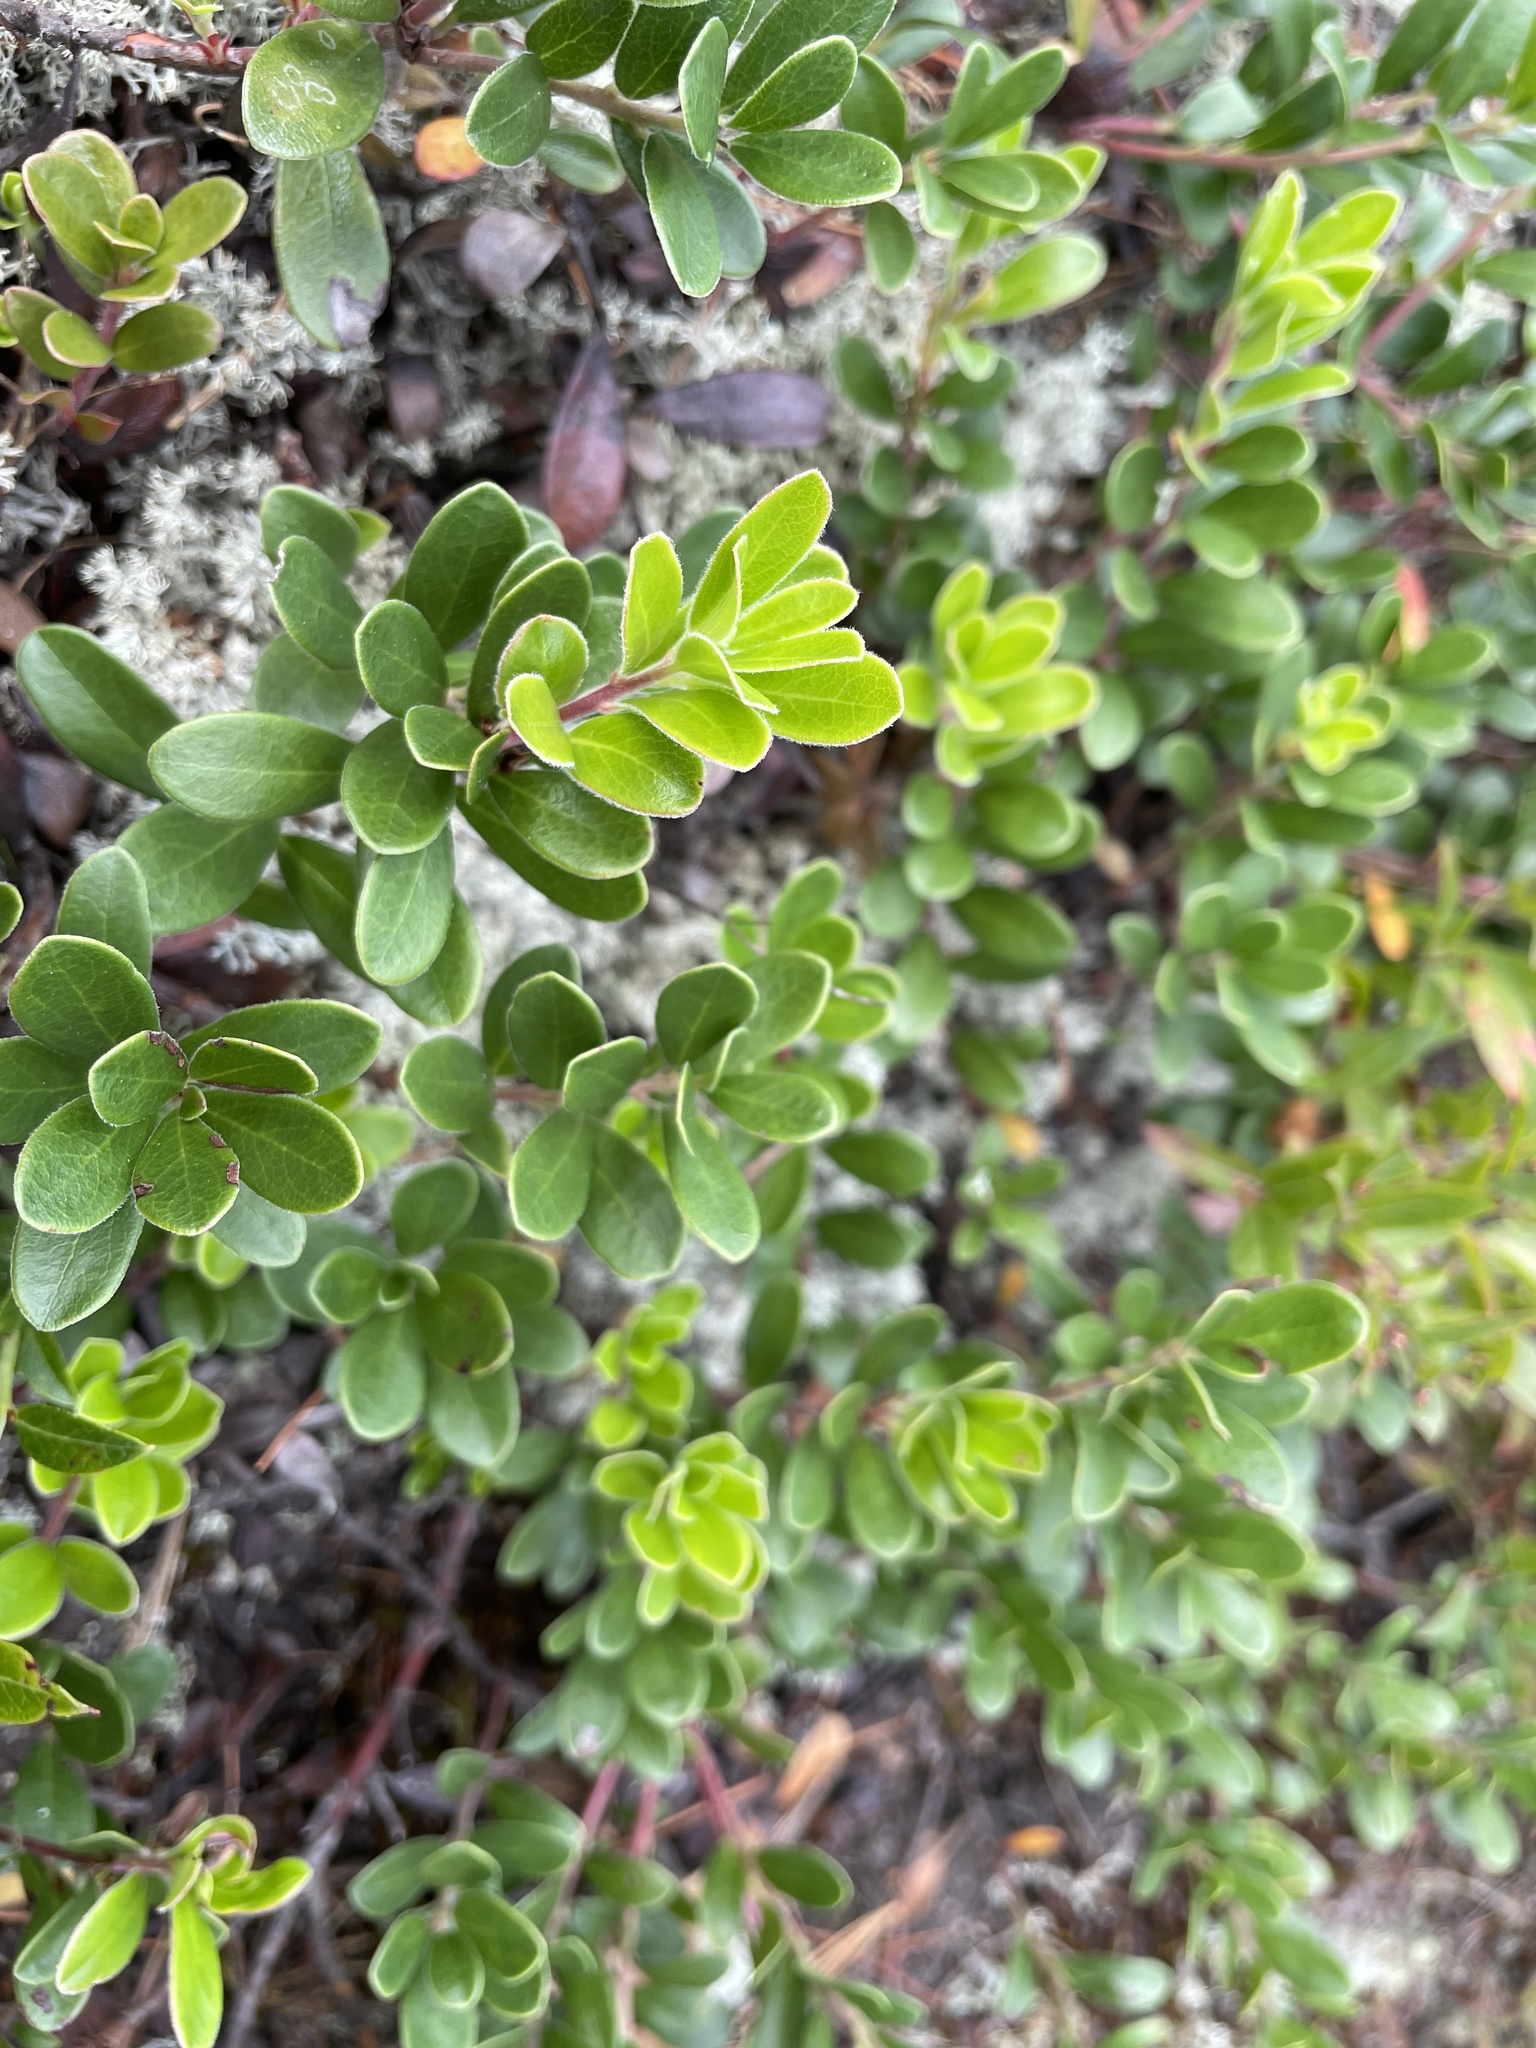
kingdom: Plantae
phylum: Tracheophyta
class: Magnoliopsida
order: Ericales
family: Ericaceae
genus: Arctostaphylos
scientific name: Arctostaphylos uva-ursi
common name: Bearberry
